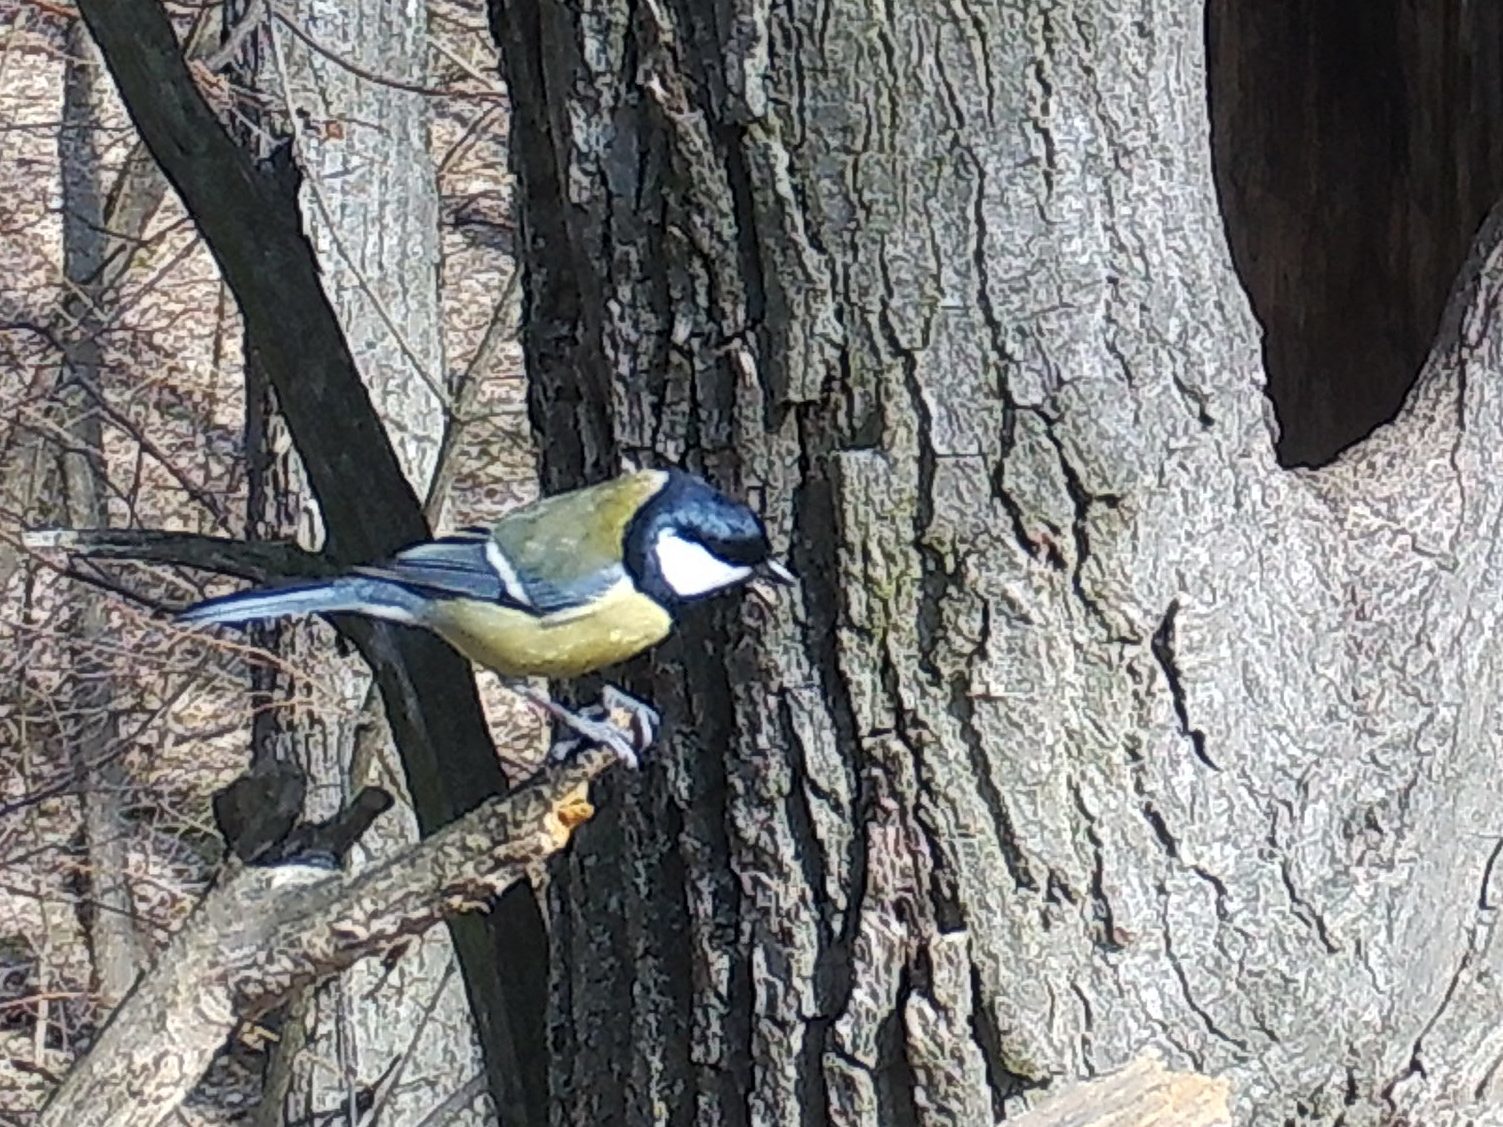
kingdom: Animalia
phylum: Chordata
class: Aves
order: Passeriformes
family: Paridae
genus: Parus
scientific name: Parus major
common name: Great tit
